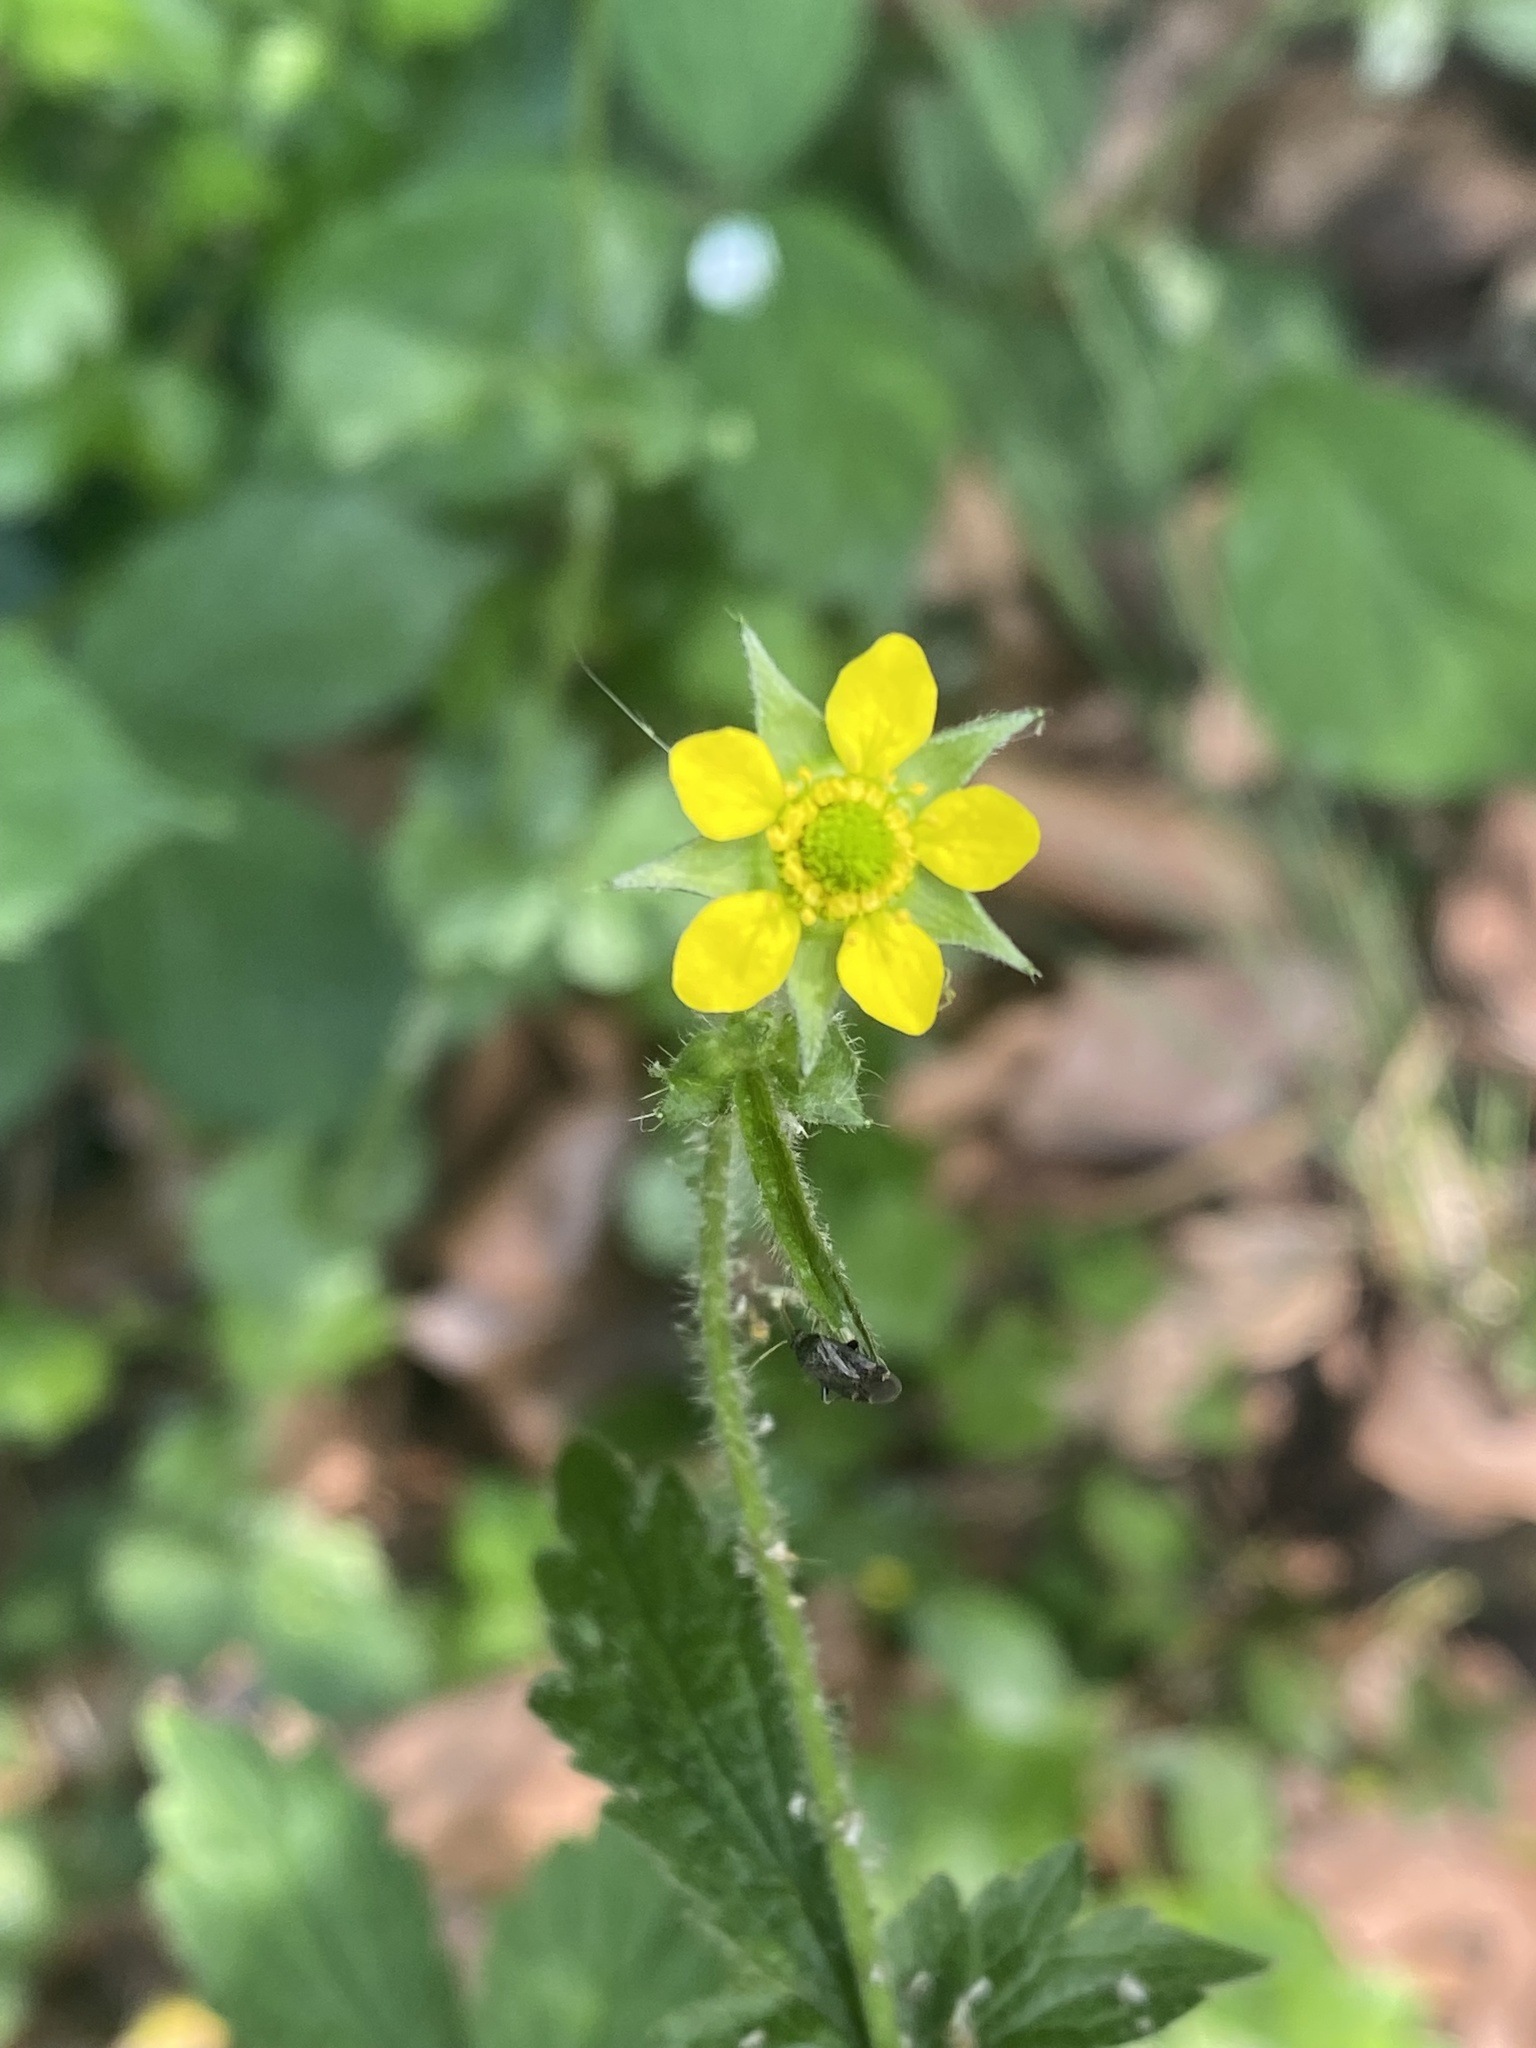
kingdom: Plantae
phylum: Tracheophyta
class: Magnoliopsida
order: Rosales
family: Rosaceae
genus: Geum
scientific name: Geum urbanum
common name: Wood avens
